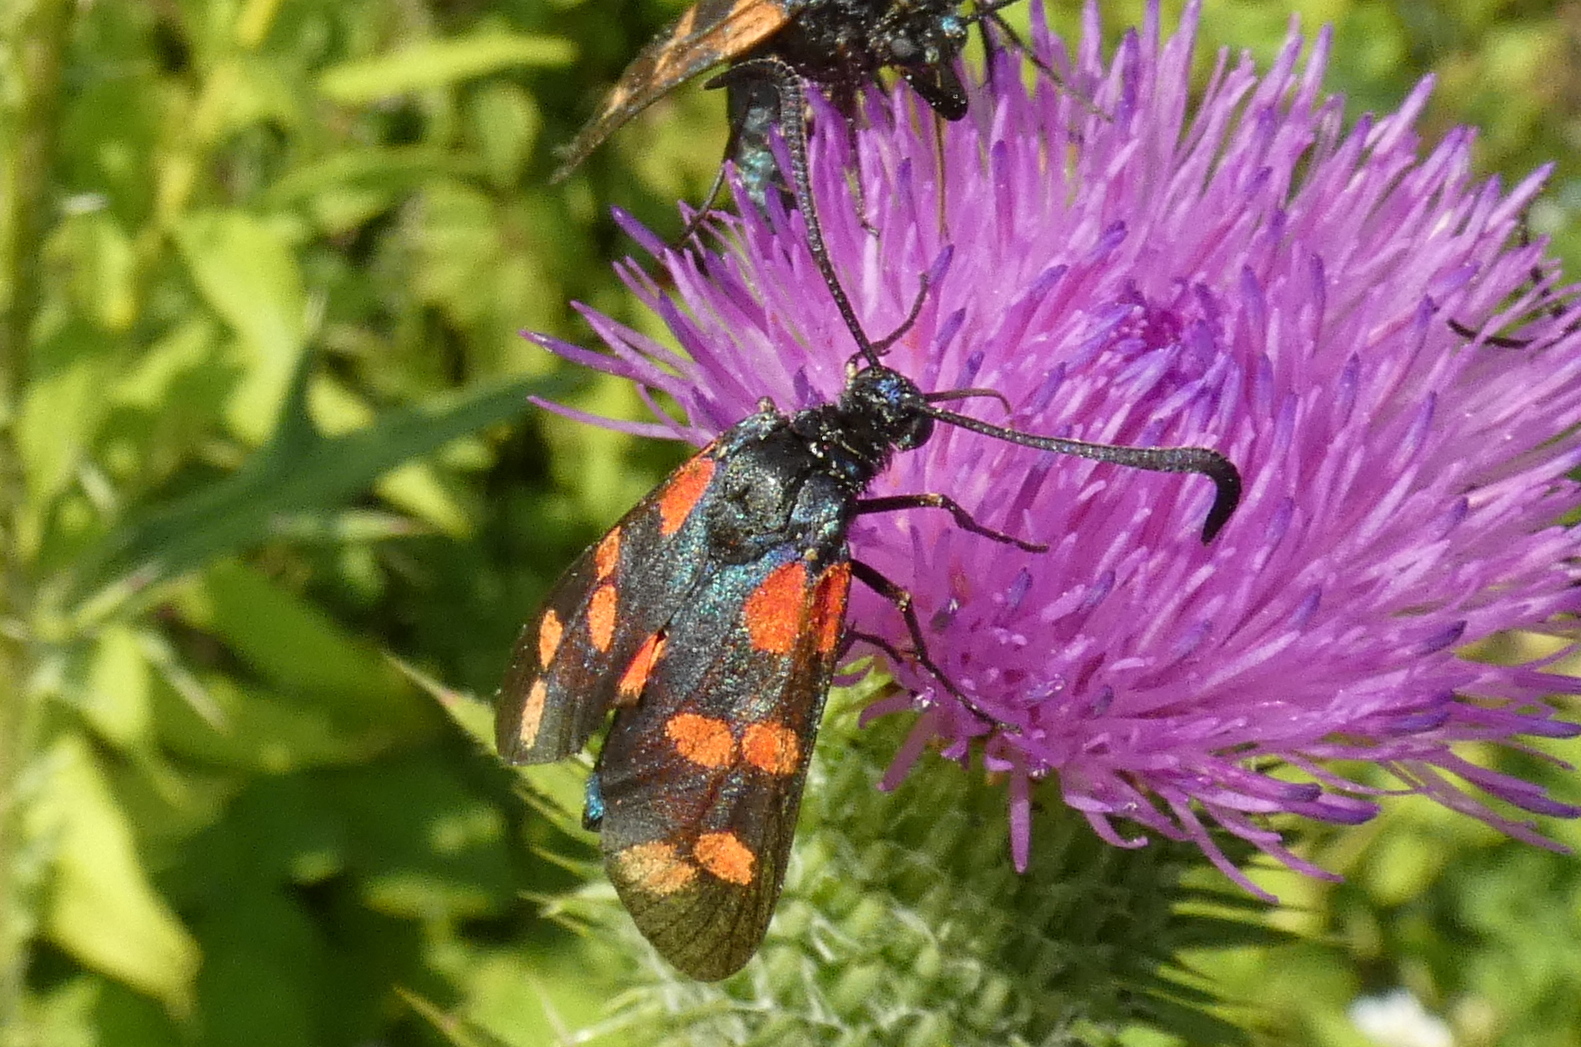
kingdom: Animalia
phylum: Arthropoda
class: Insecta
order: Lepidoptera
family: Zygaenidae
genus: Zygaena
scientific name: Zygaena filipendulae
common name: Six-spot burnet
